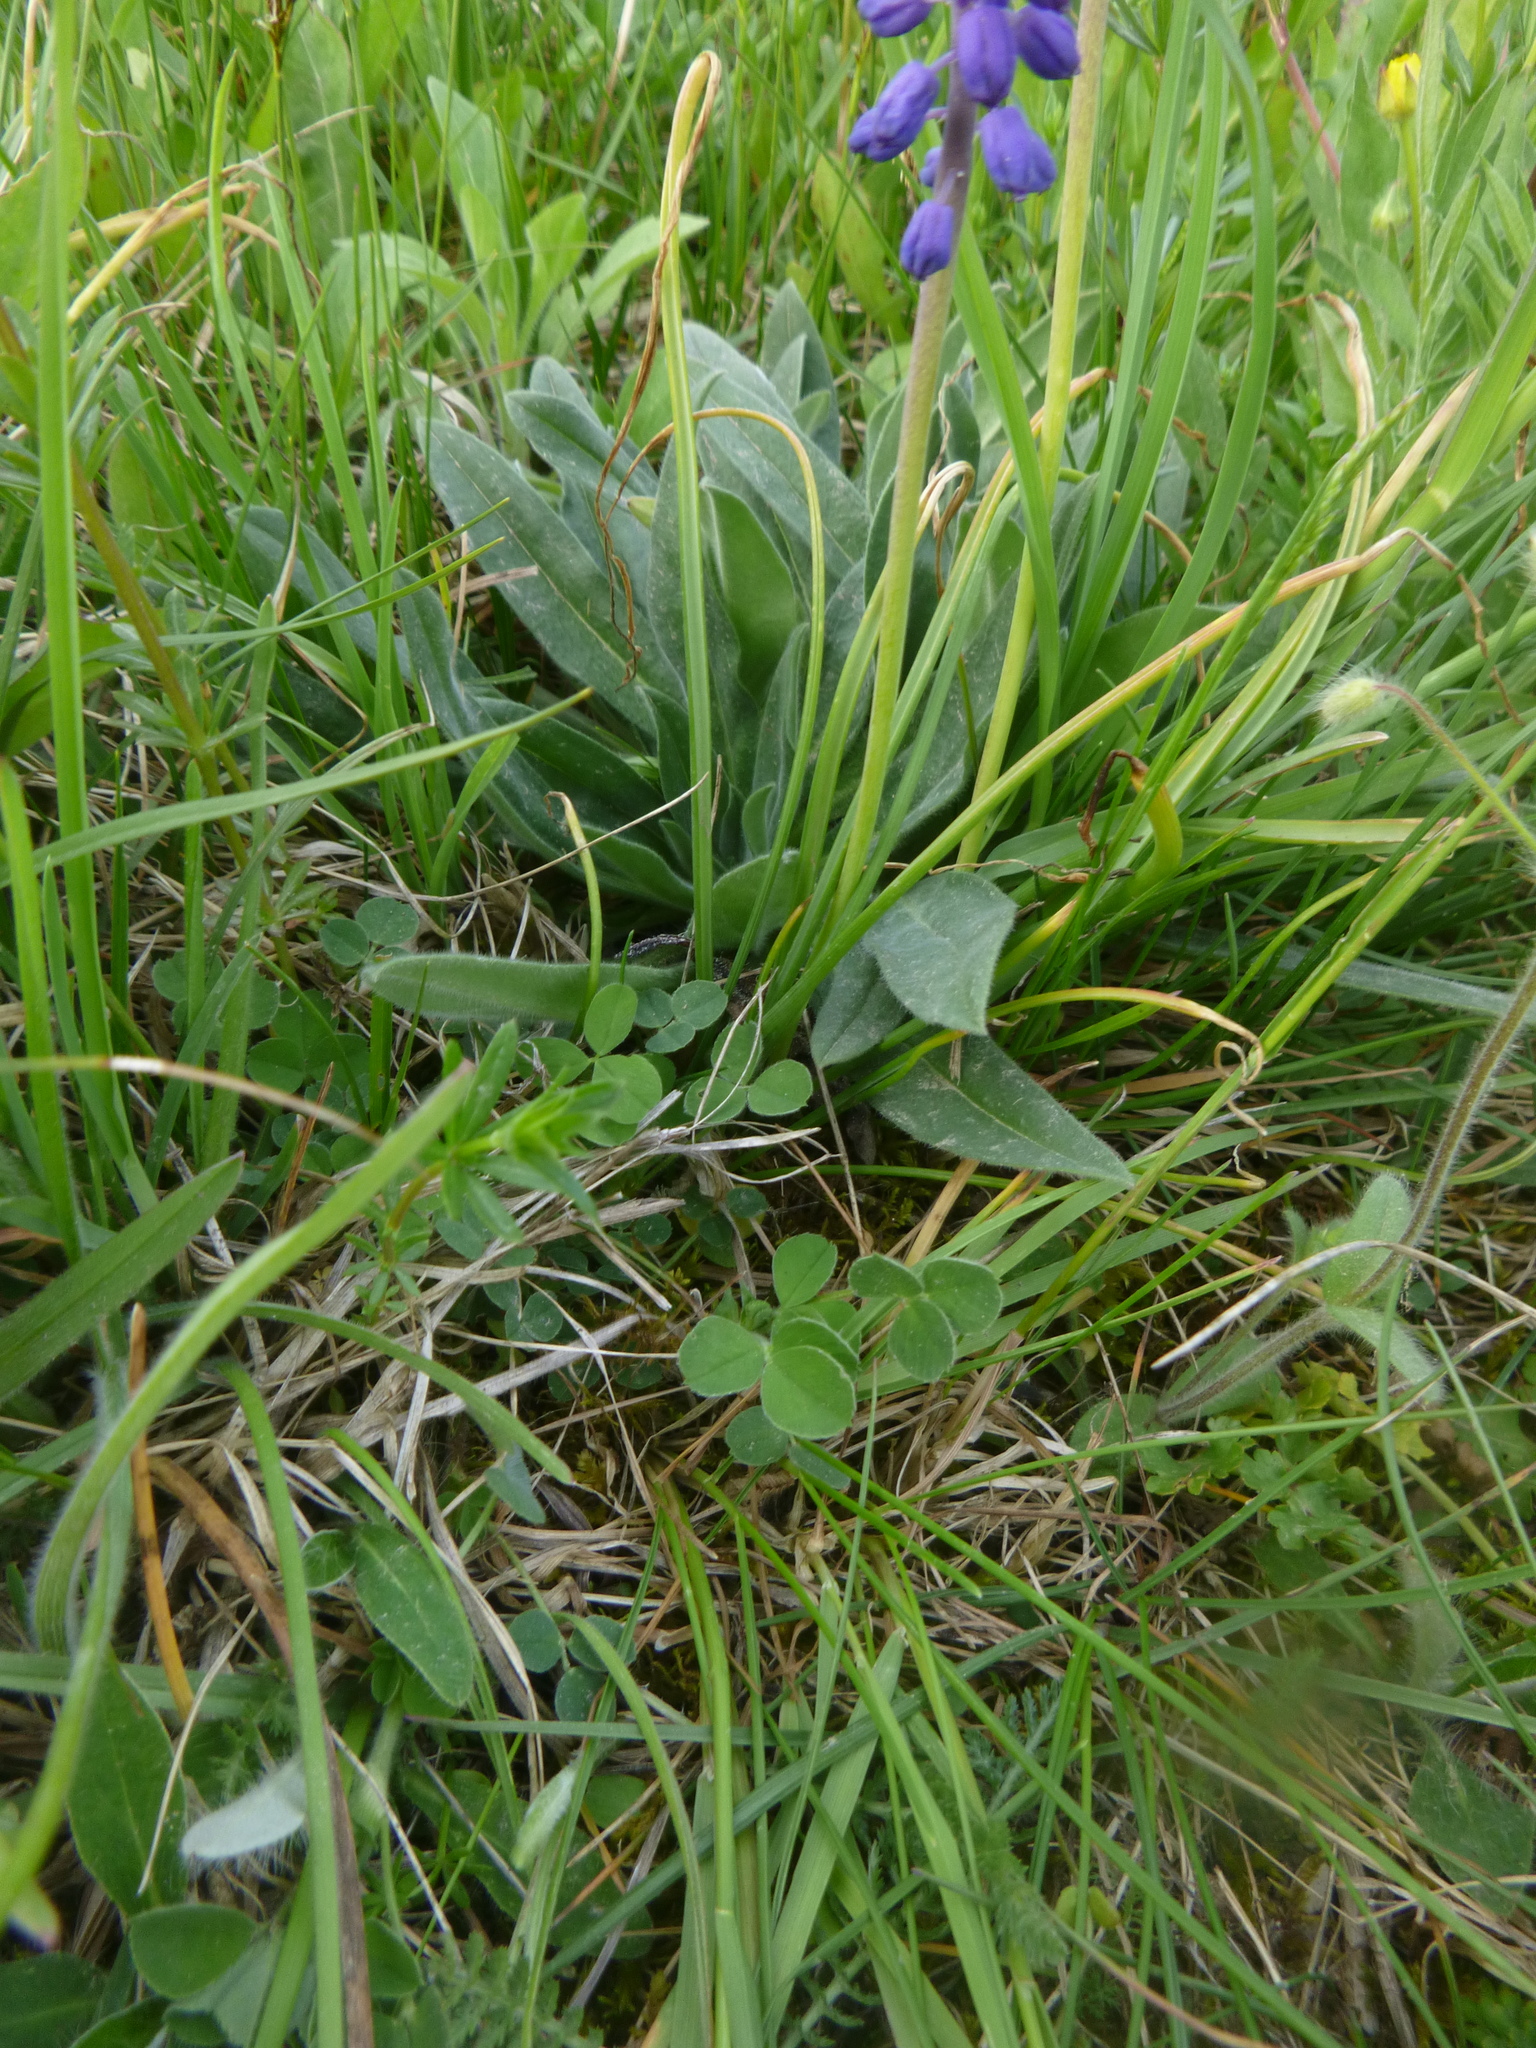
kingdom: Plantae
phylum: Tracheophyta
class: Liliopsida
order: Asparagales
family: Asparagaceae
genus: Muscari
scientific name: Muscari neglectum
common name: Grape-hyacinth
